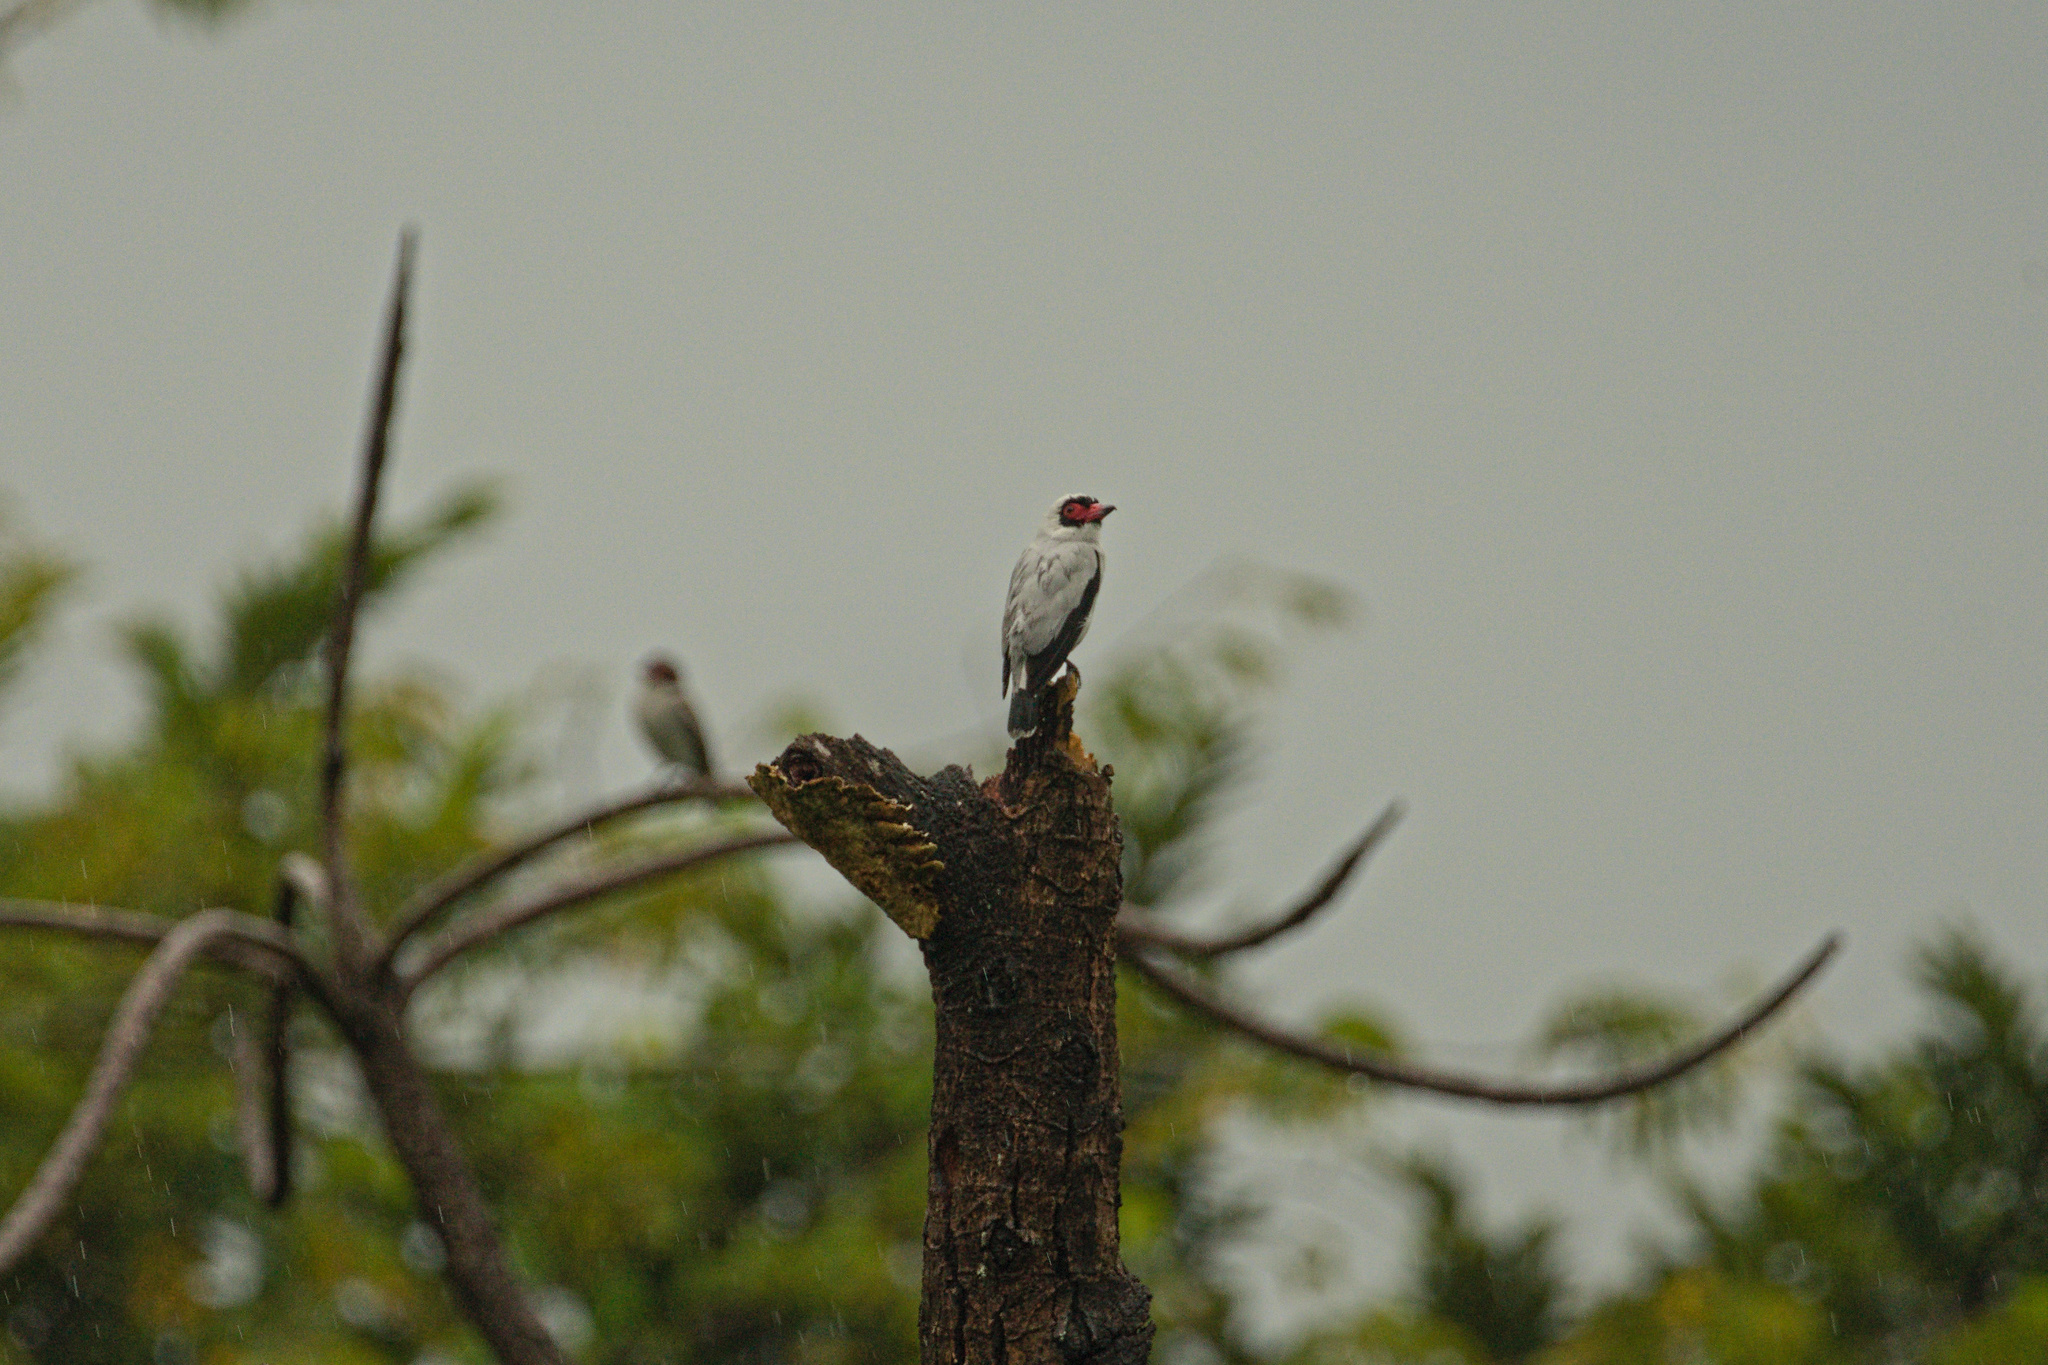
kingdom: Animalia
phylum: Chordata
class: Aves
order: Passeriformes
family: Cotingidae
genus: Tityra
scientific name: Tityra semifasciata
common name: Masked tityra
